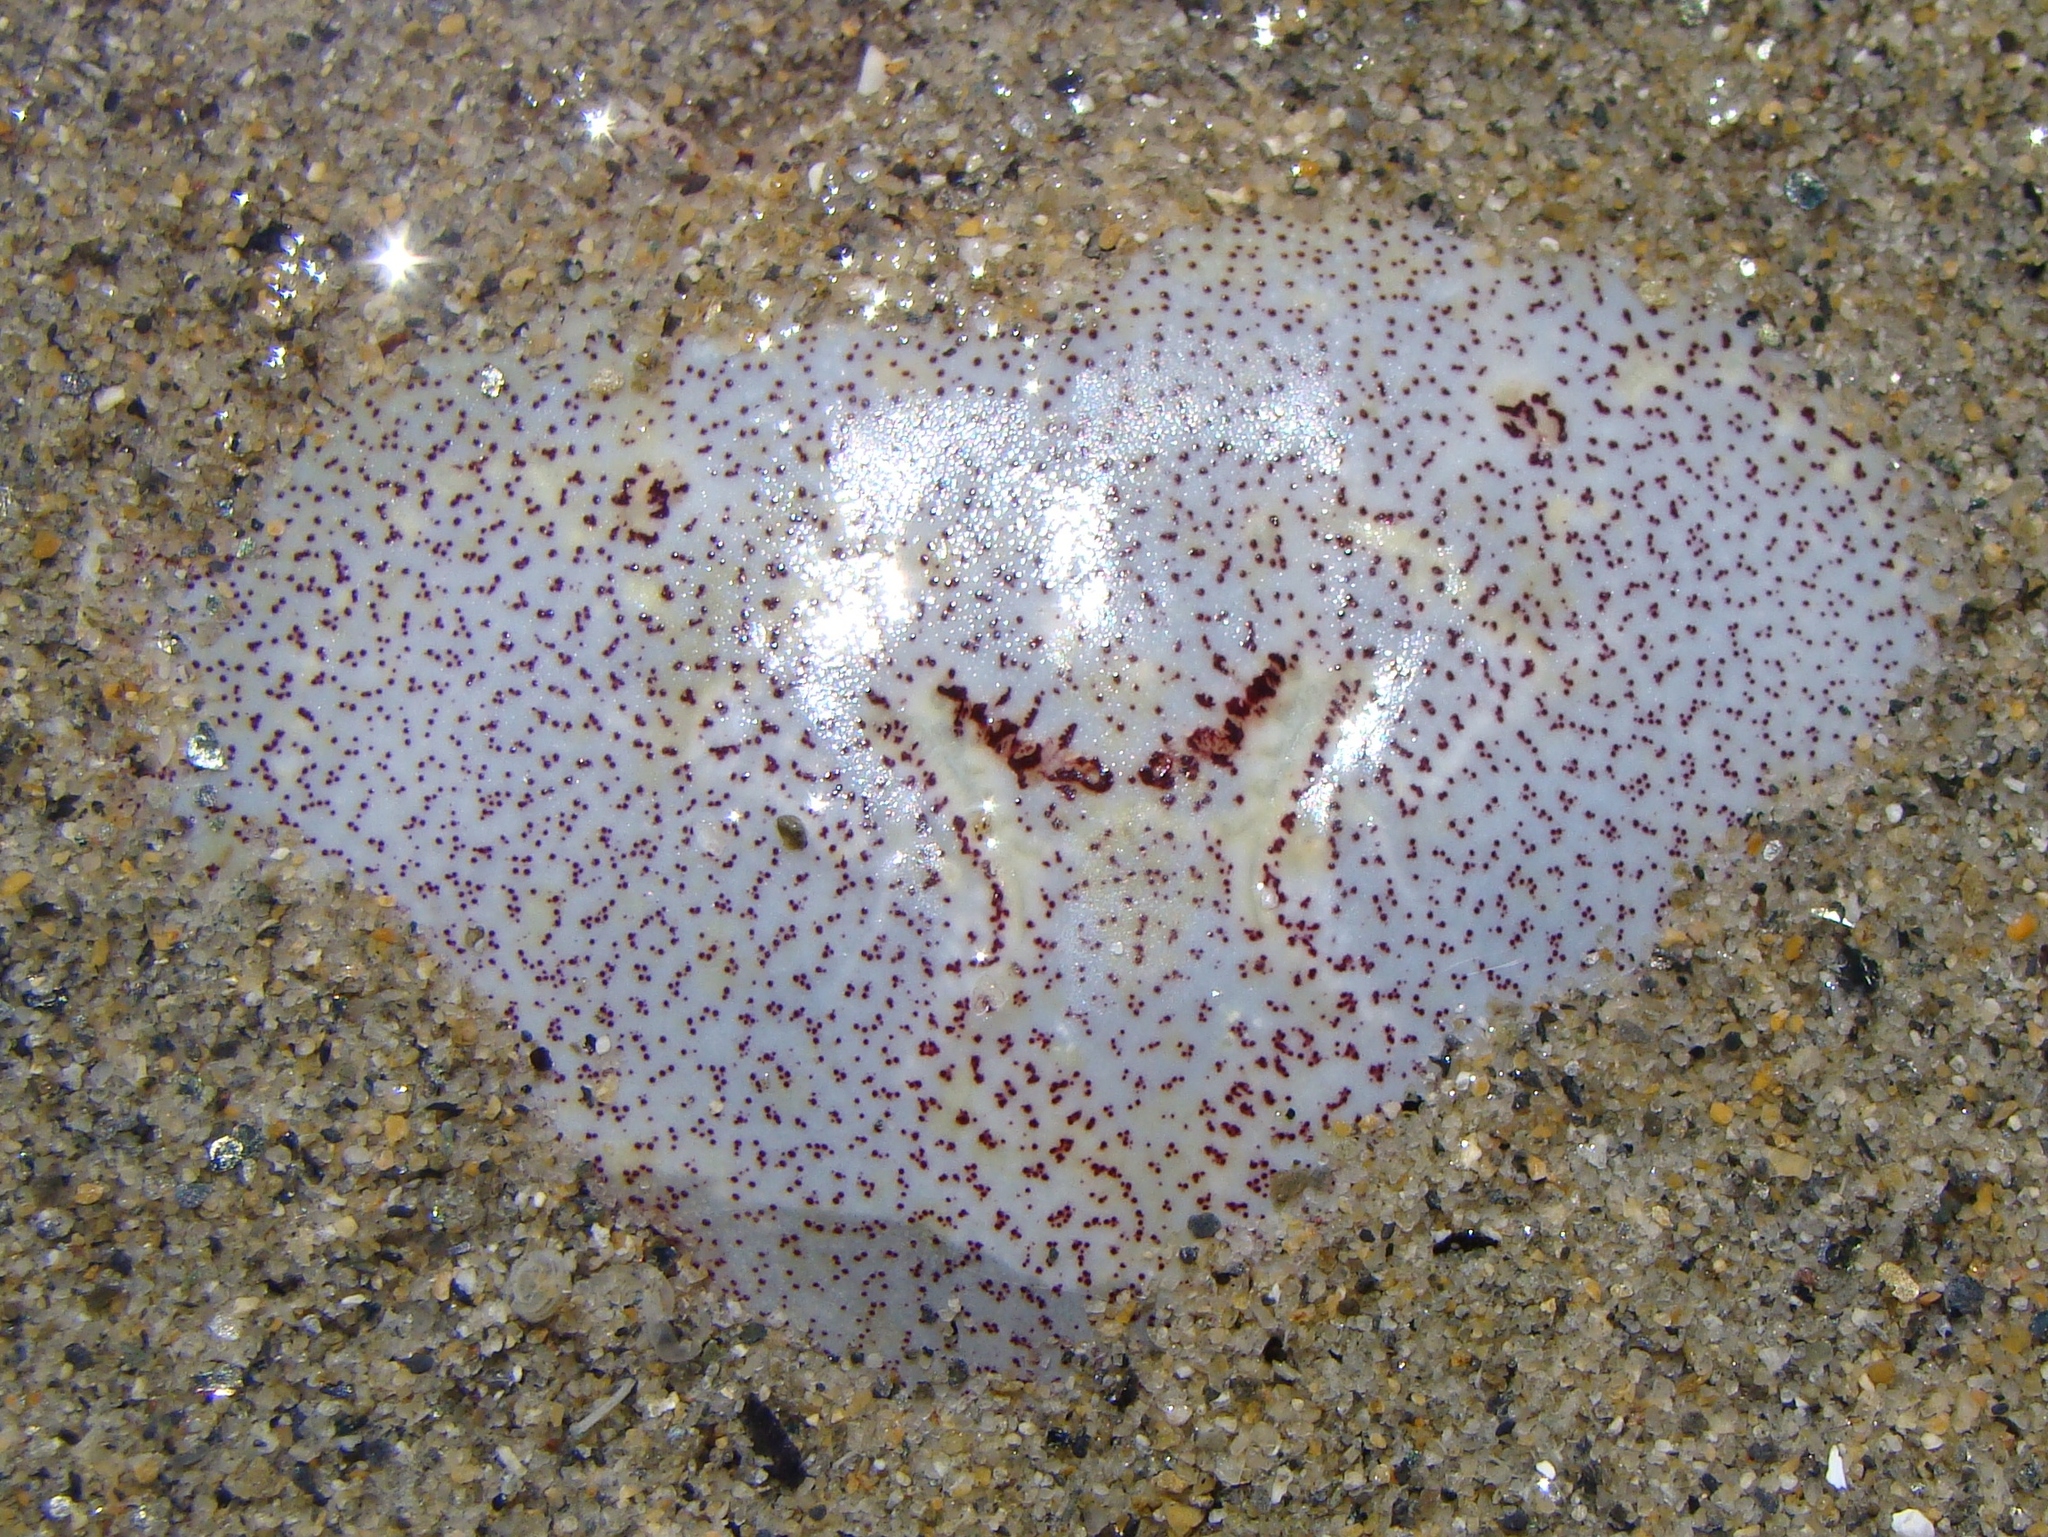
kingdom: Animalia
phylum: Arthropoda
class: Malacostraca
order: Decapoda
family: Ovalipidae
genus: Ovalipes
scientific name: Ovalipes catharus
